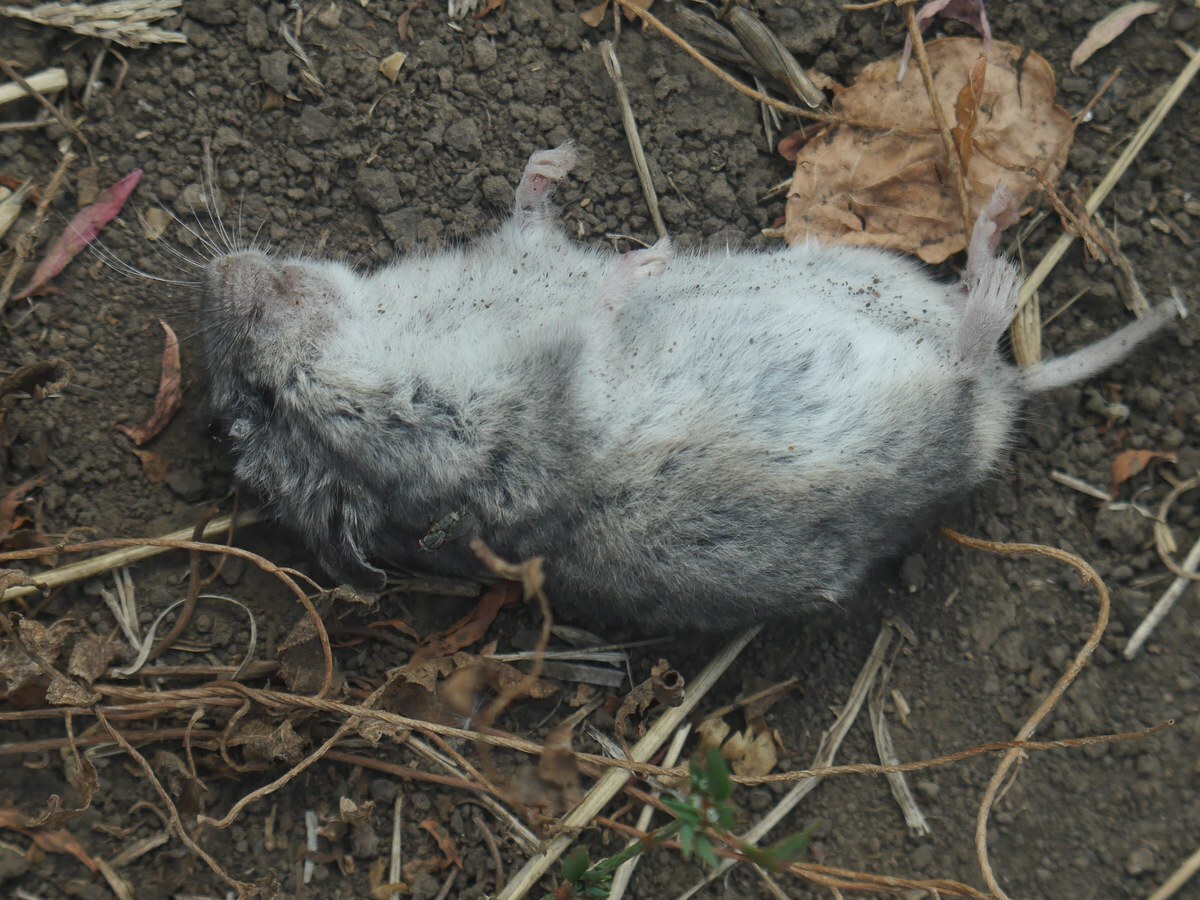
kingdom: Animalia
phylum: Chordata
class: Mammalia
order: Rodentia
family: Cricetidae
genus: Nothocricetulus
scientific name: Nothocricetulus
